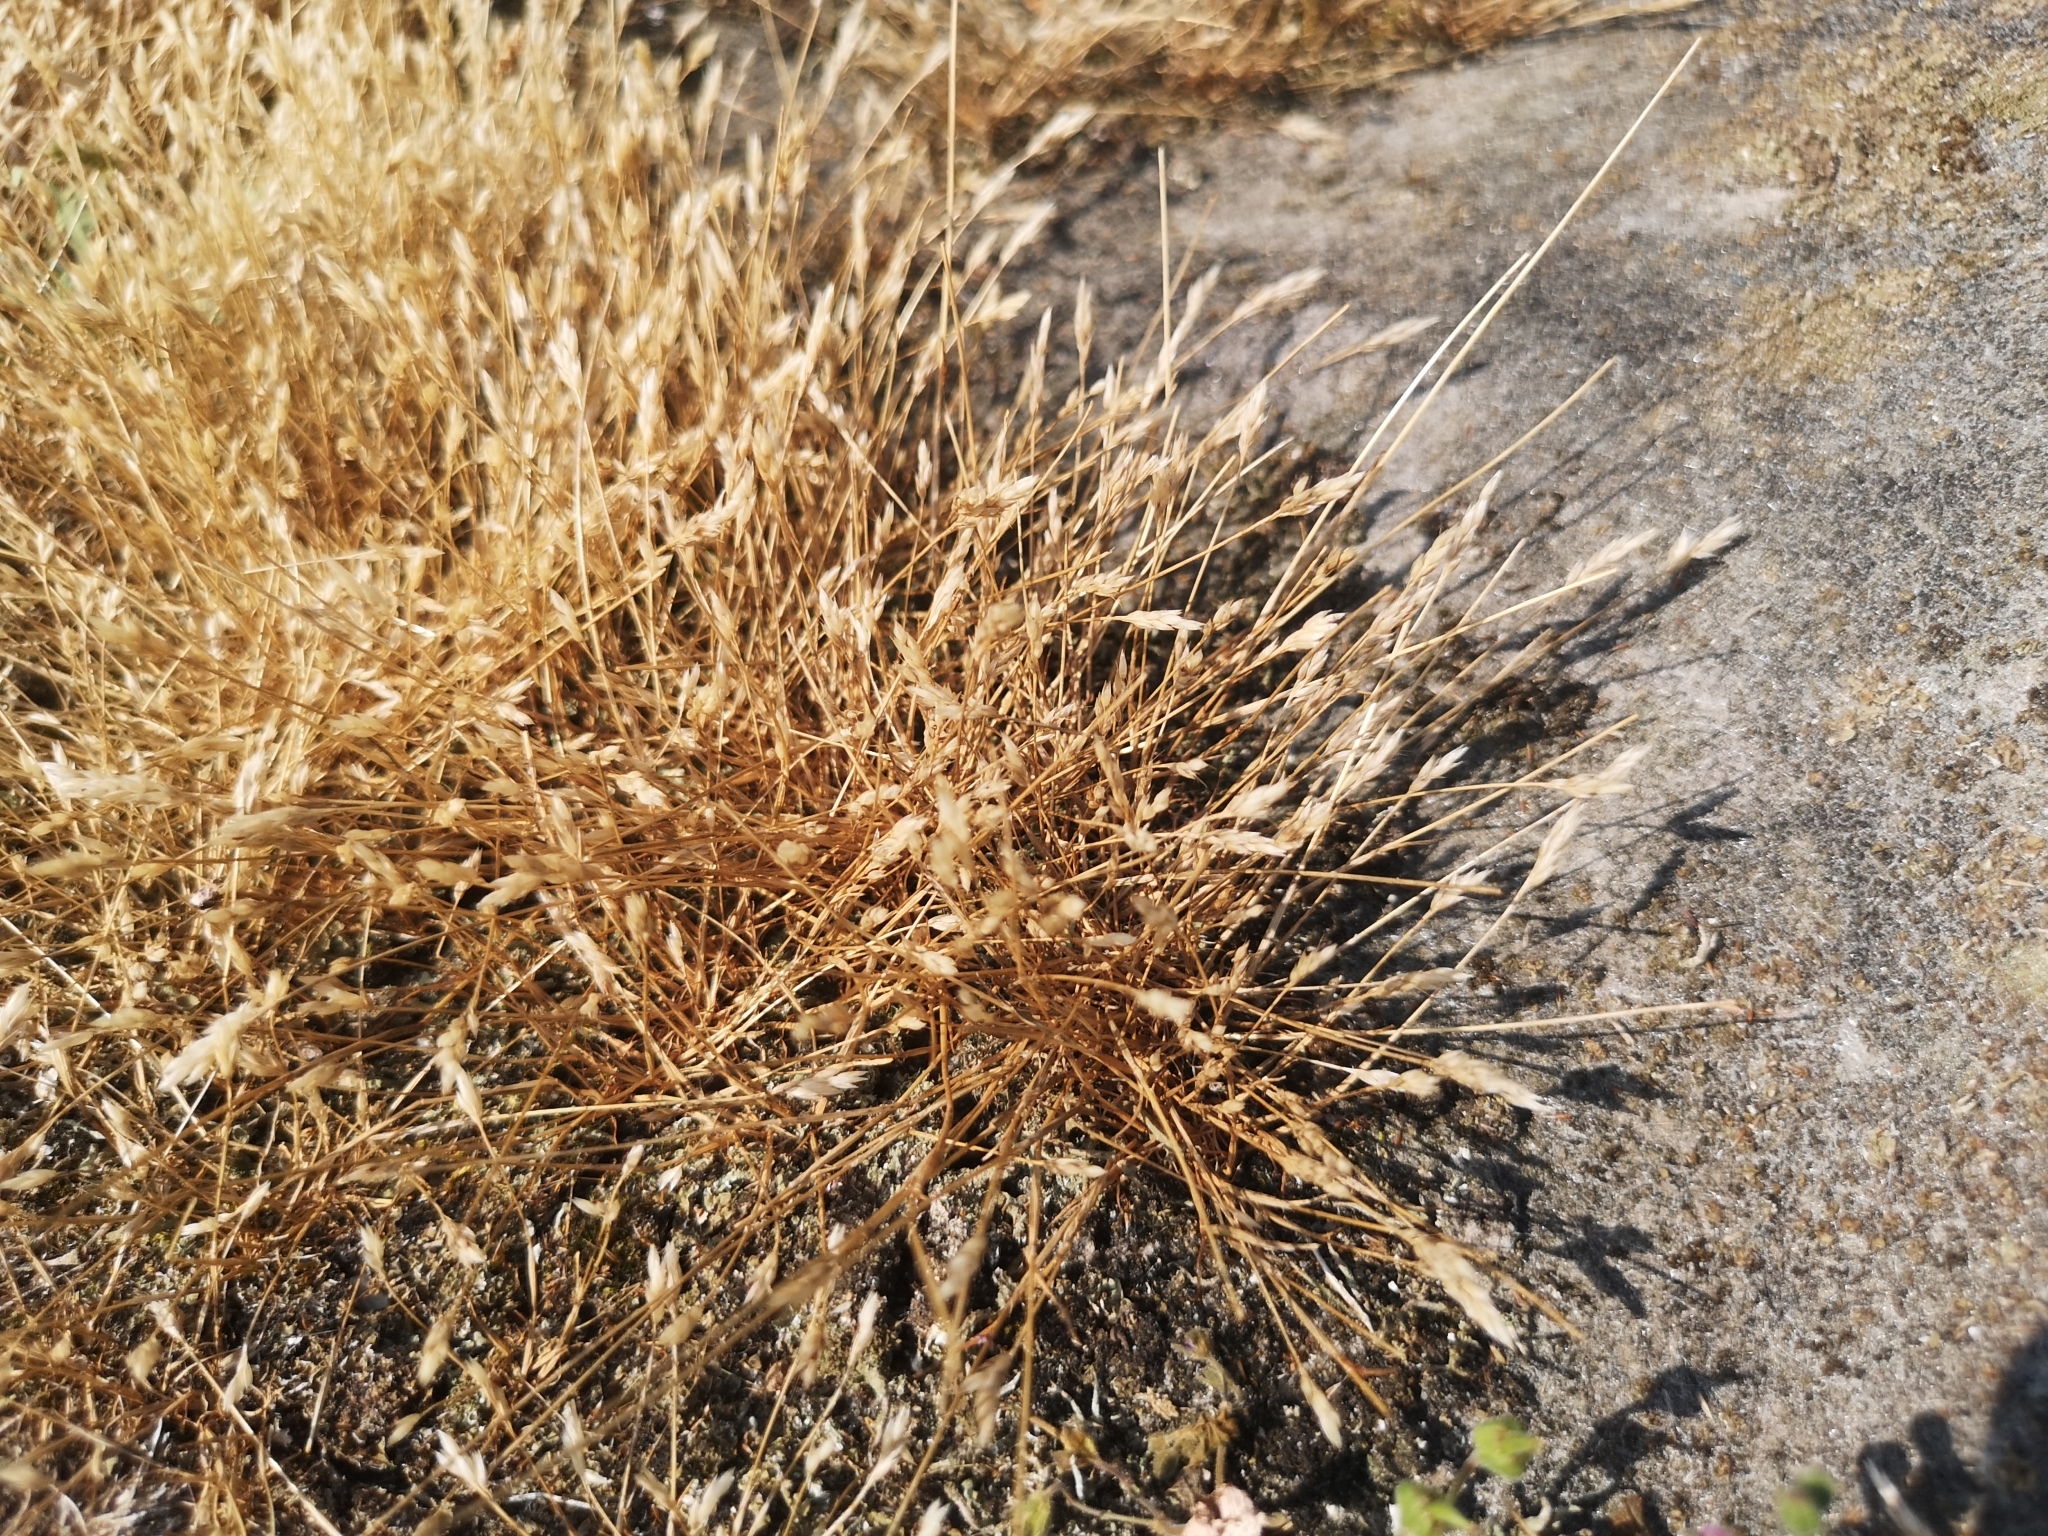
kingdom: Plantae
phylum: Tracheophyta
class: Liliopsida
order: Poales
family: Poaceae
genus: Aira
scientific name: Aira praecox
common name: Early hair-grass
